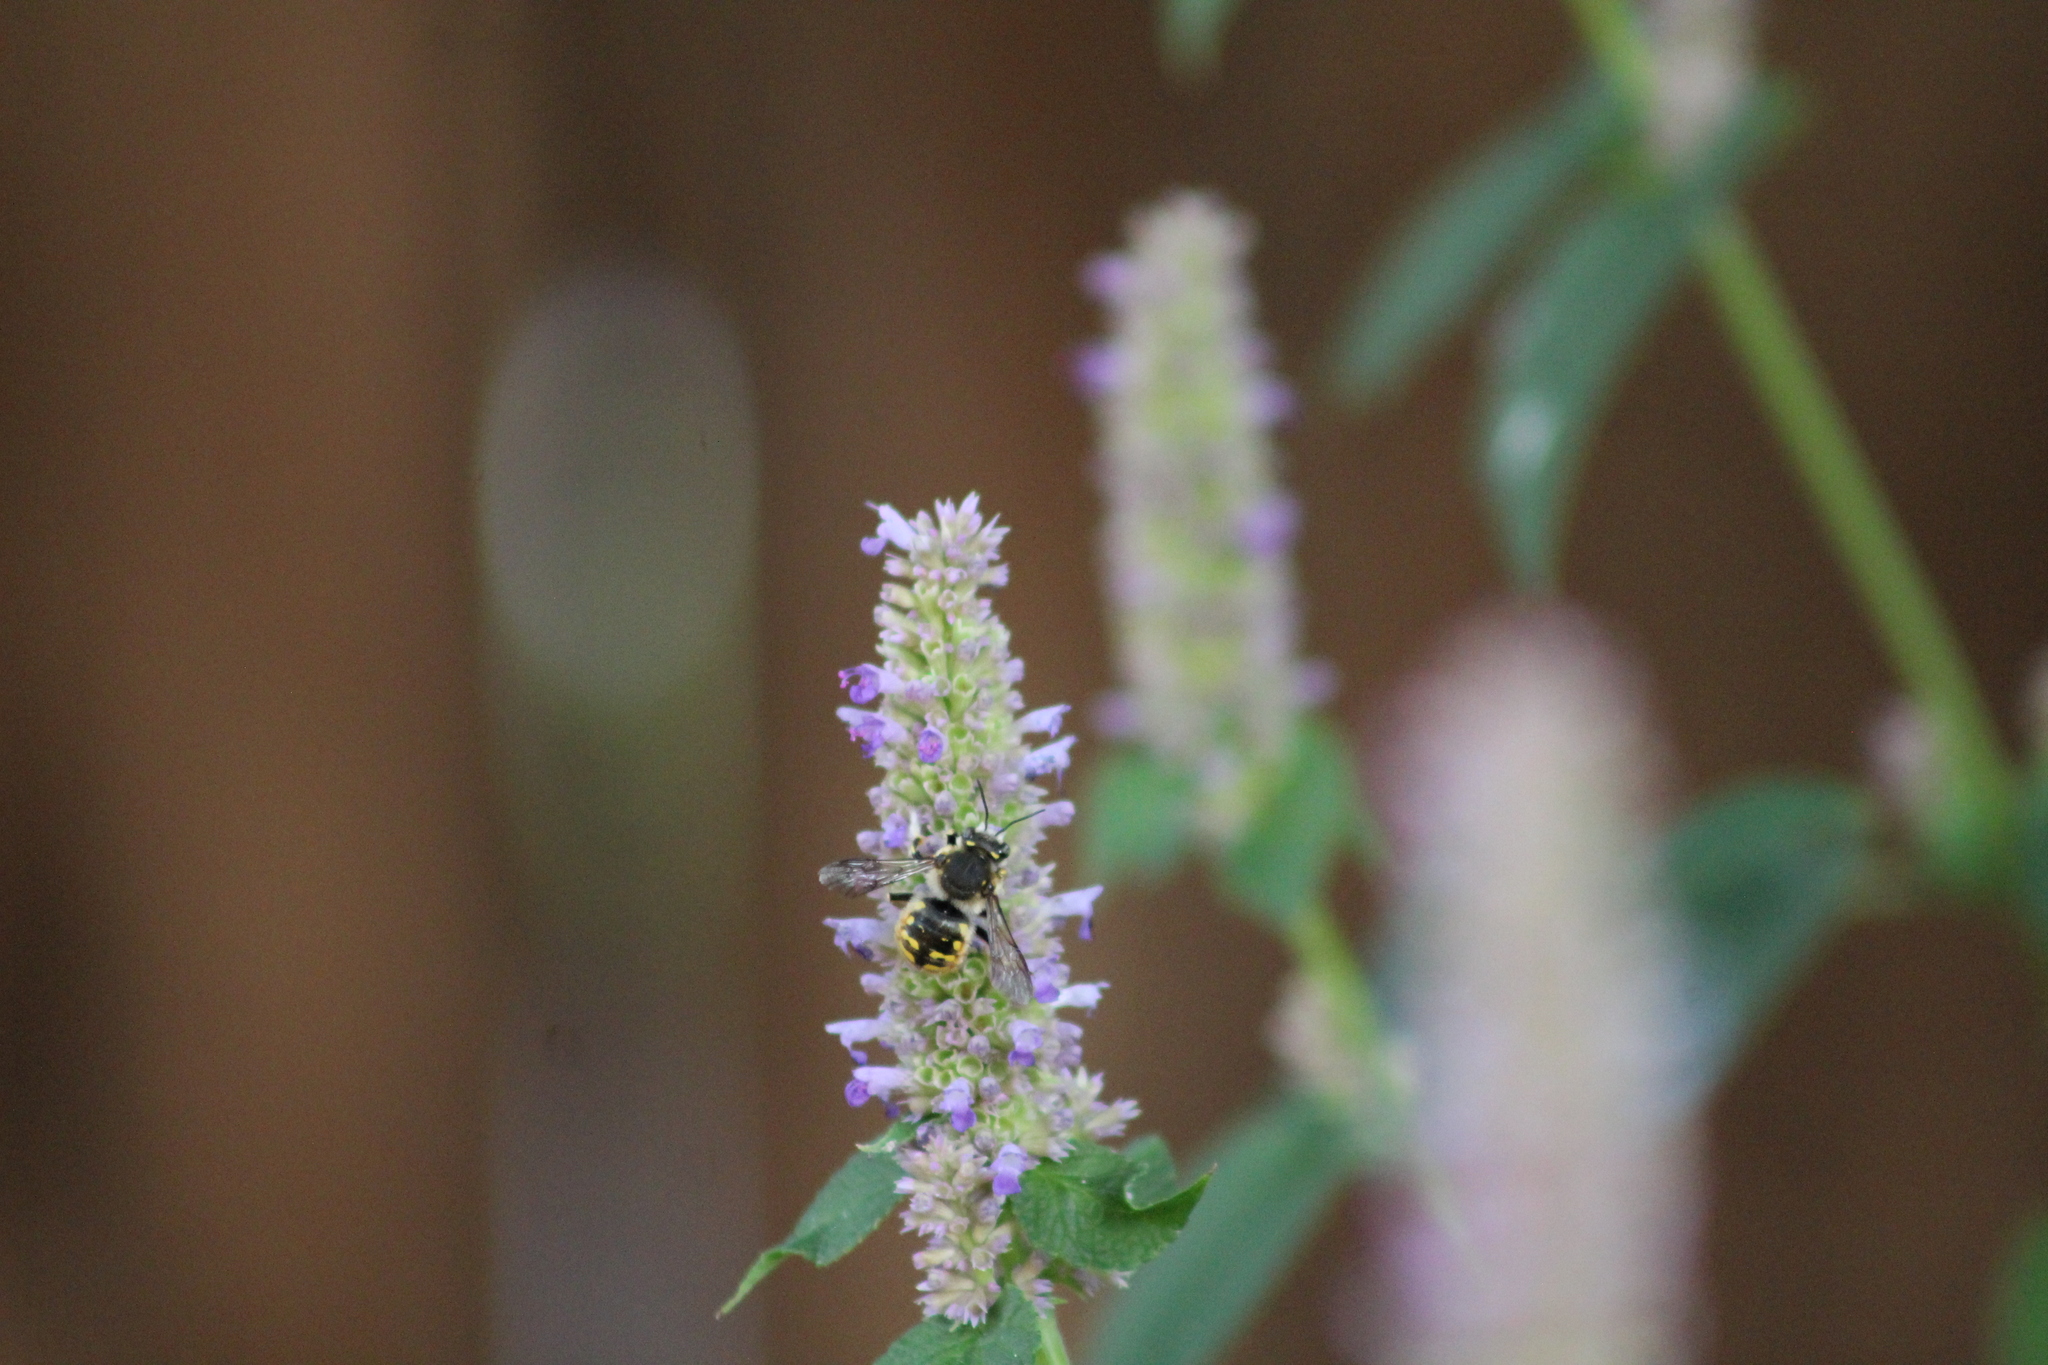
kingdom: Animalia
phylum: Arthropoda
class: Insecta
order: Hymenoptera
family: Megachilidae
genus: Anthidium
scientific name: Anthidium manicatum
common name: Wool carder bee
